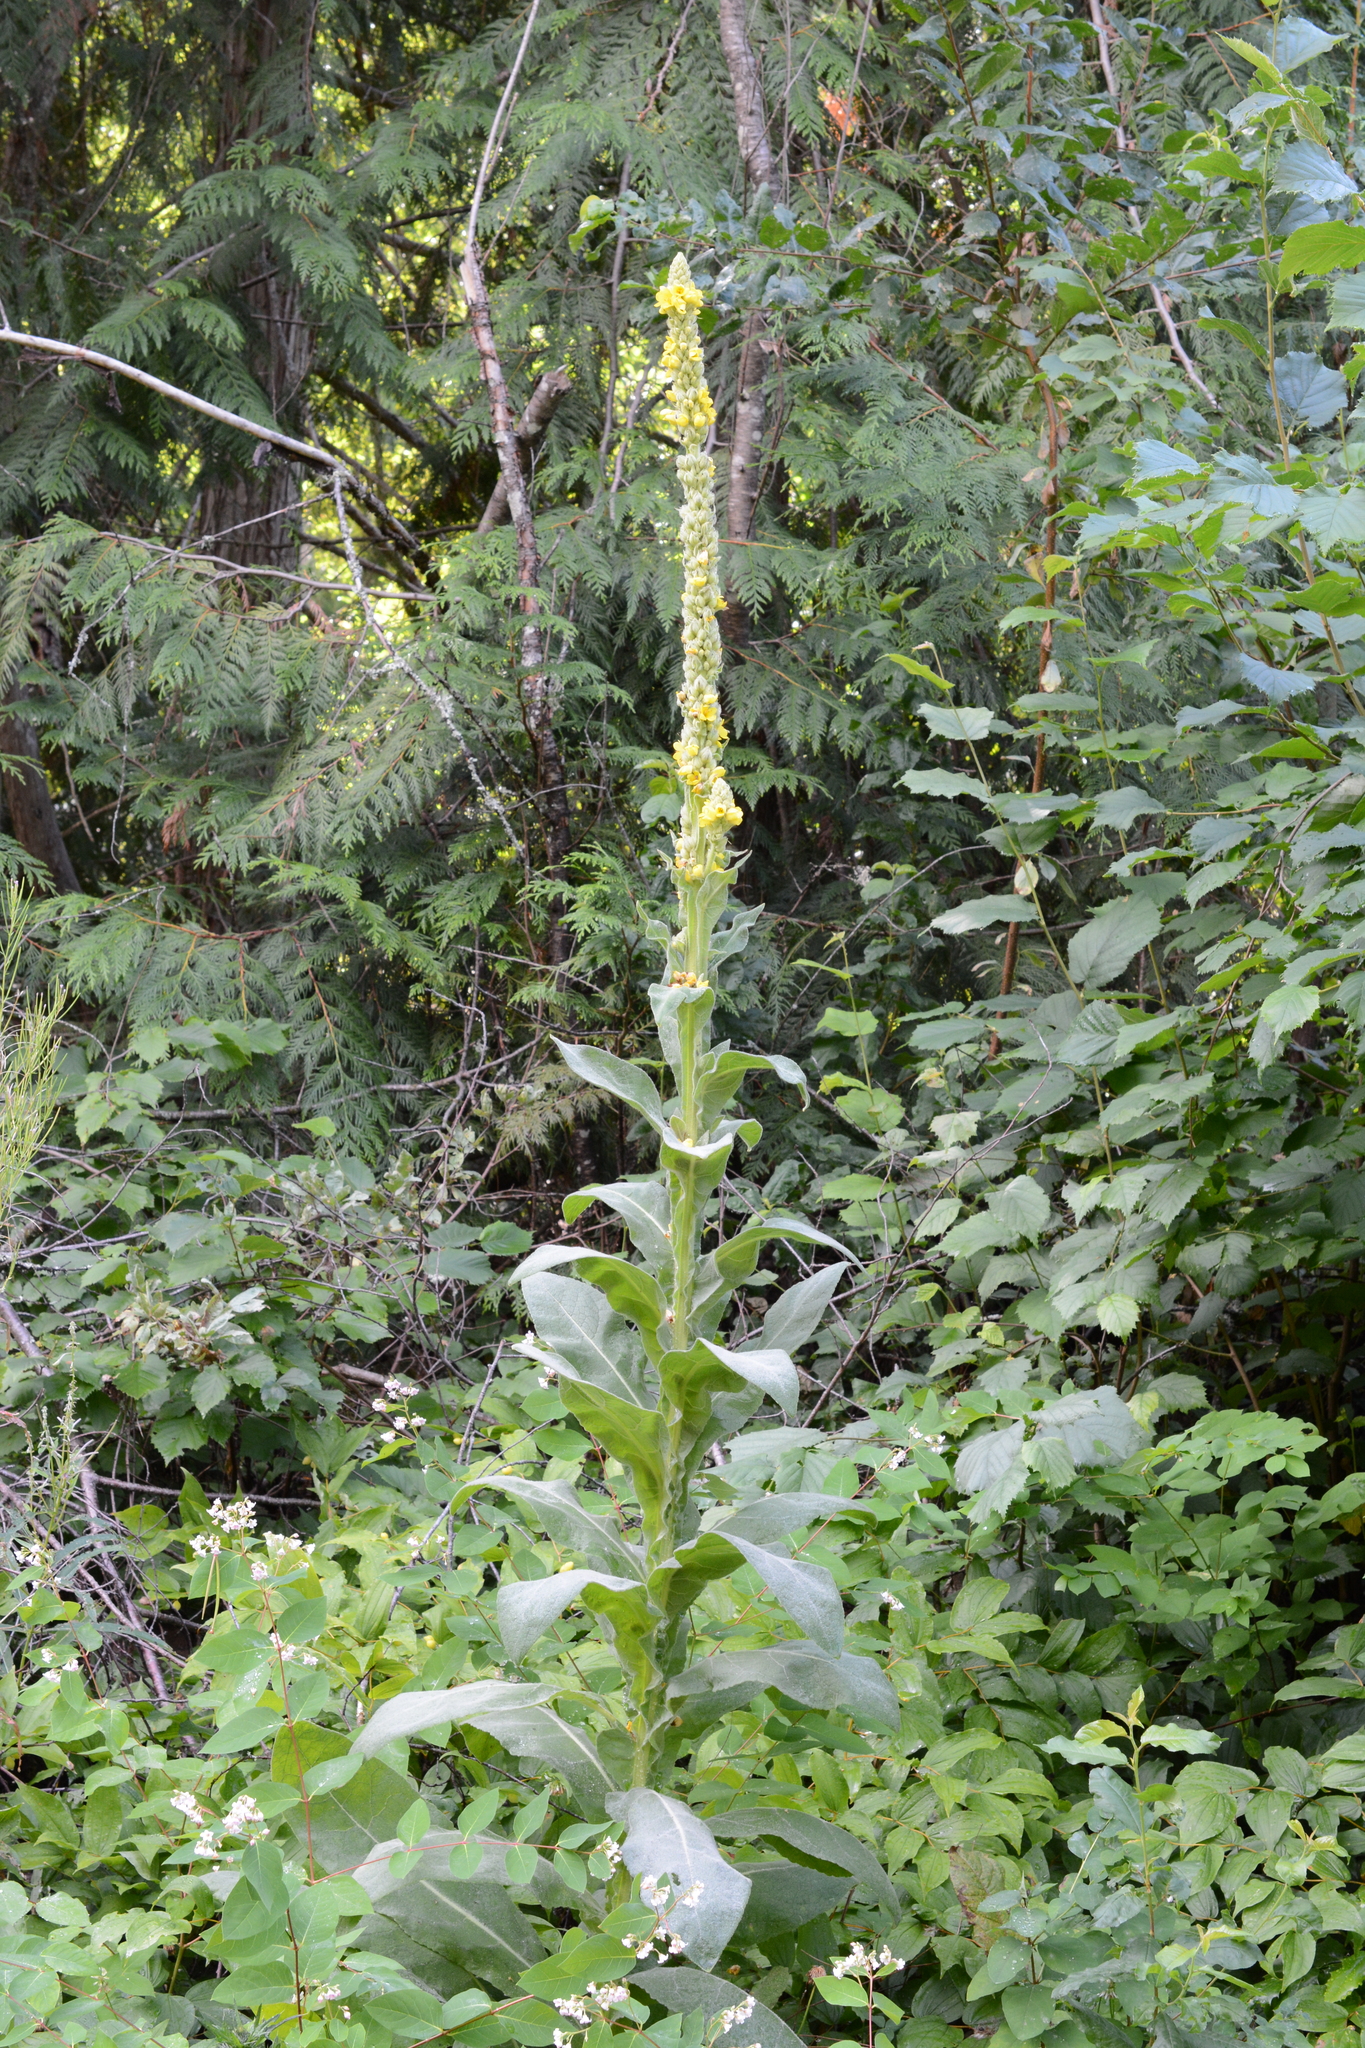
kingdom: Plantae
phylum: Tracheophyta
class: Magnoliopsida
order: Lamiales
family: Scrophulariaceae
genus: Verbascum
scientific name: Verbascum thapsus
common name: Common mullein
